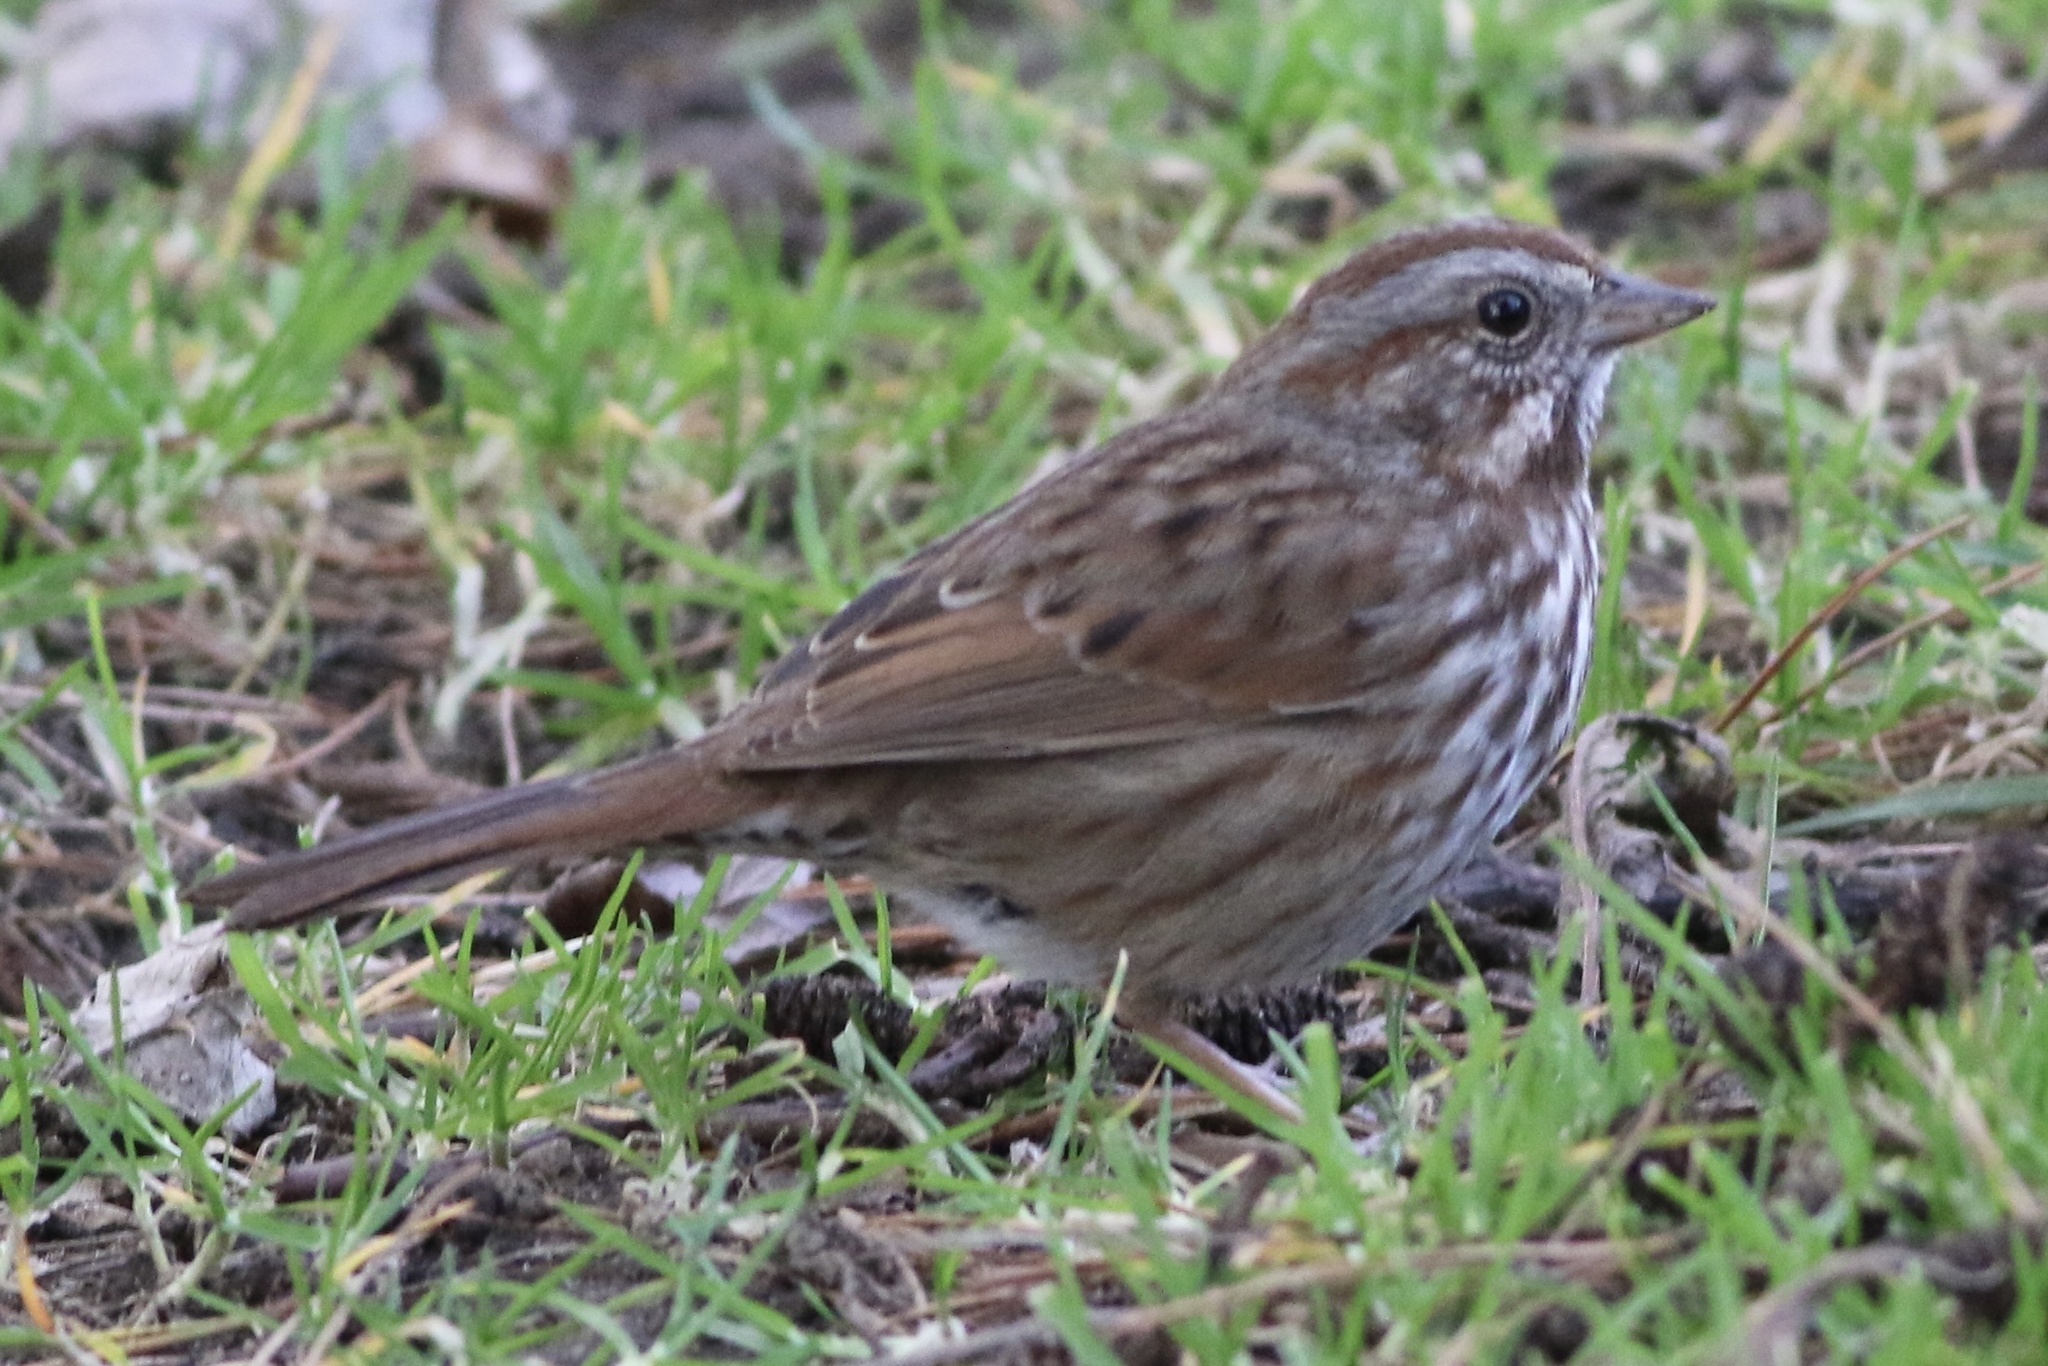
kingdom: Animalia
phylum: Chordata
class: Aves
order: Passeriformes
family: Passerellidae
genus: Melospiza
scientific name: Melospiza melodia
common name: Song sparrow
